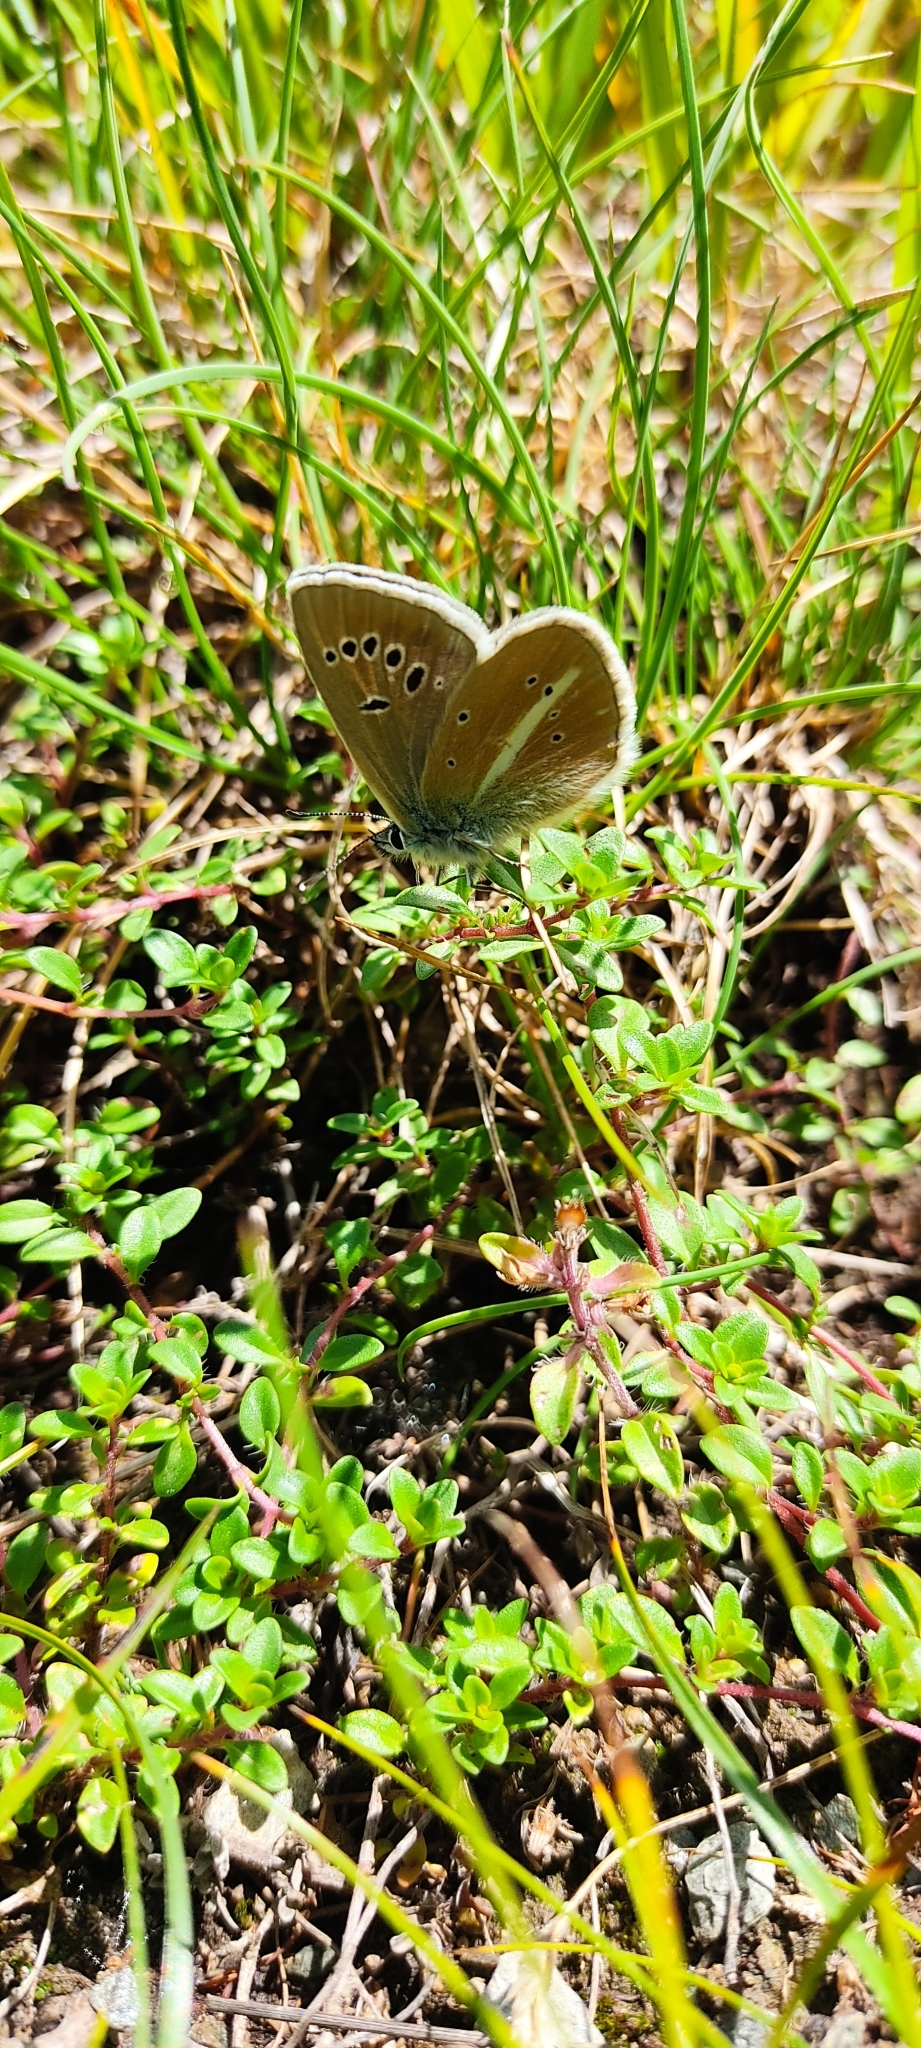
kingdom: Animalia
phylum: Arthropoda
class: Insecta
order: Lepidoptera
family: Lycaenidae
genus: Agrodiaetus
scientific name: Agrodiaetus damon
